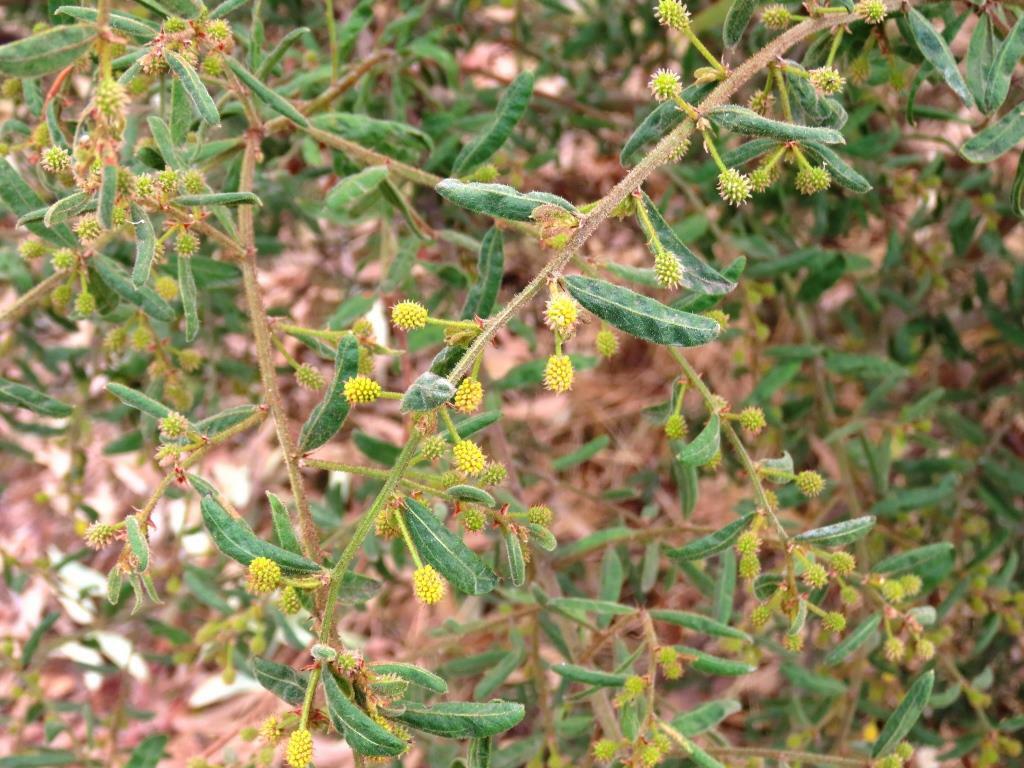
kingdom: Plantae
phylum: Tracheophyta
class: Magnoliopsida
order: Fabales
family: Fabaceae
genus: Acacia
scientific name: Acacia aspera
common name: Rough wattle
